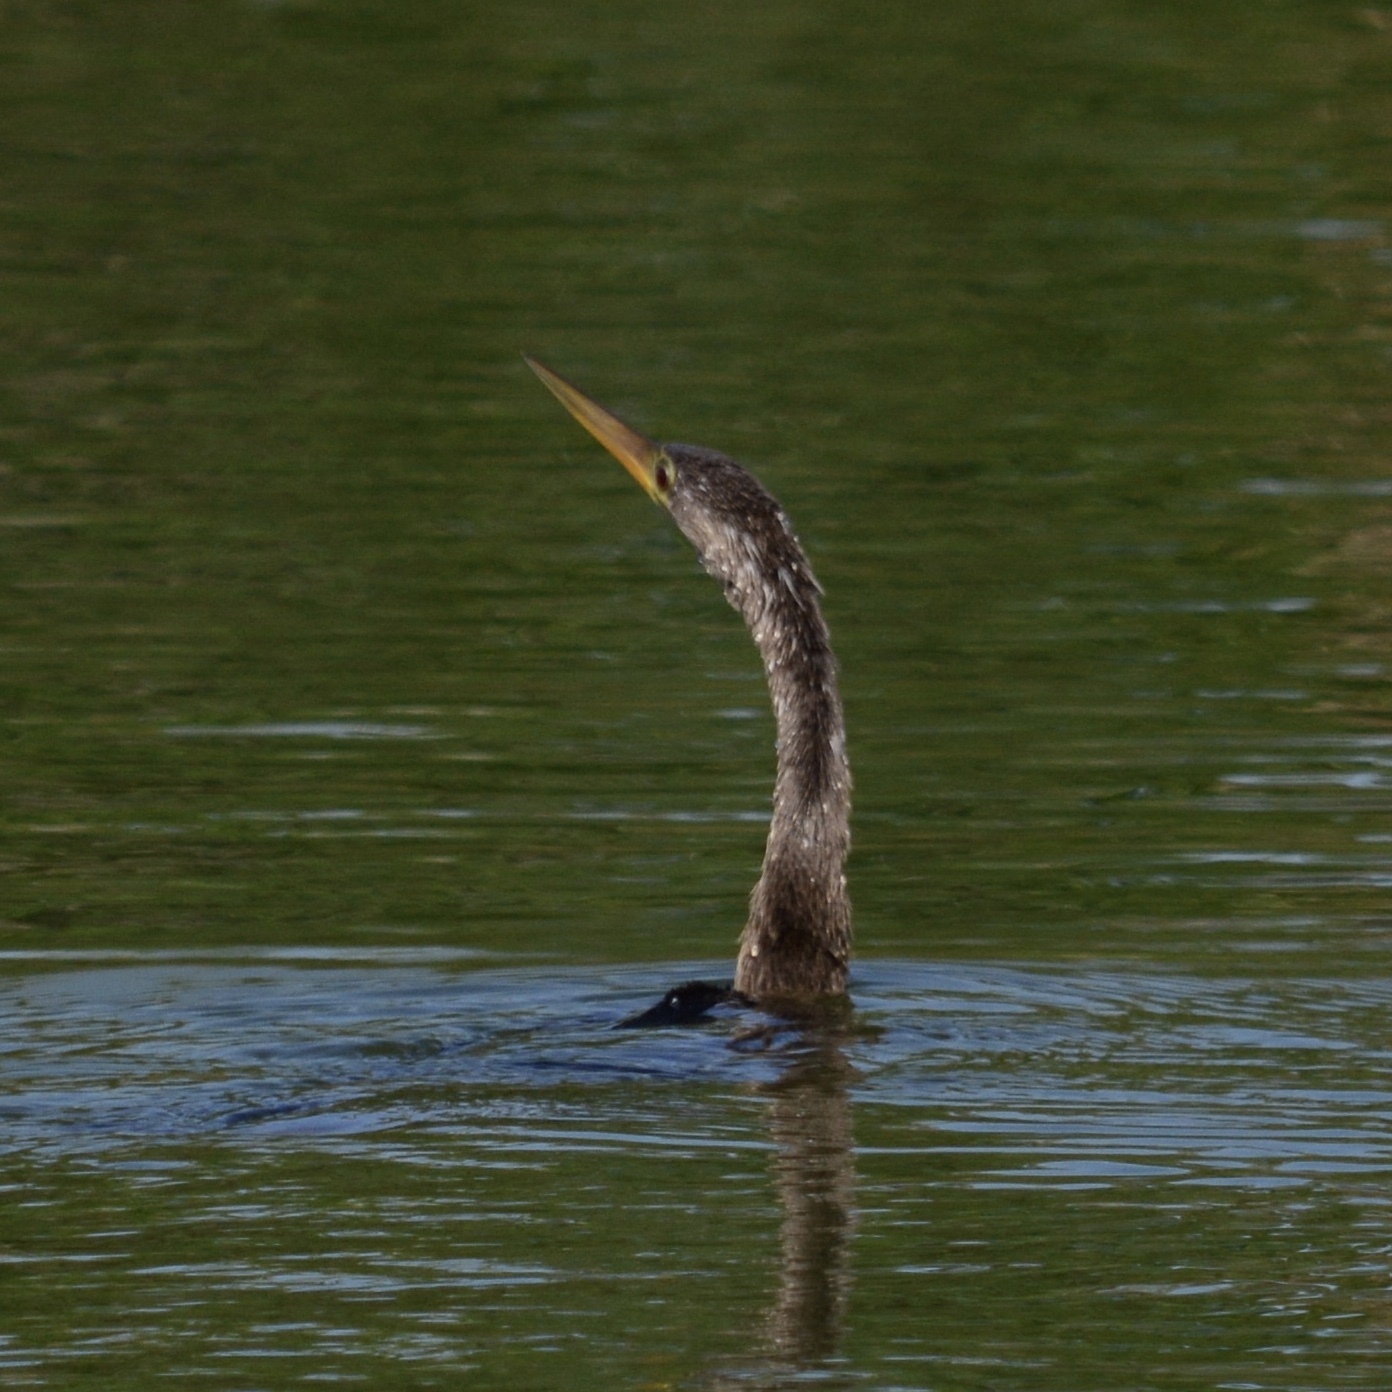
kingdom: Animalia
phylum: Chordata
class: Aves
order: Suliformes
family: Anhingidae
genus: Anhinga
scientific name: Anhinga anhinga
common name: Anhinga
